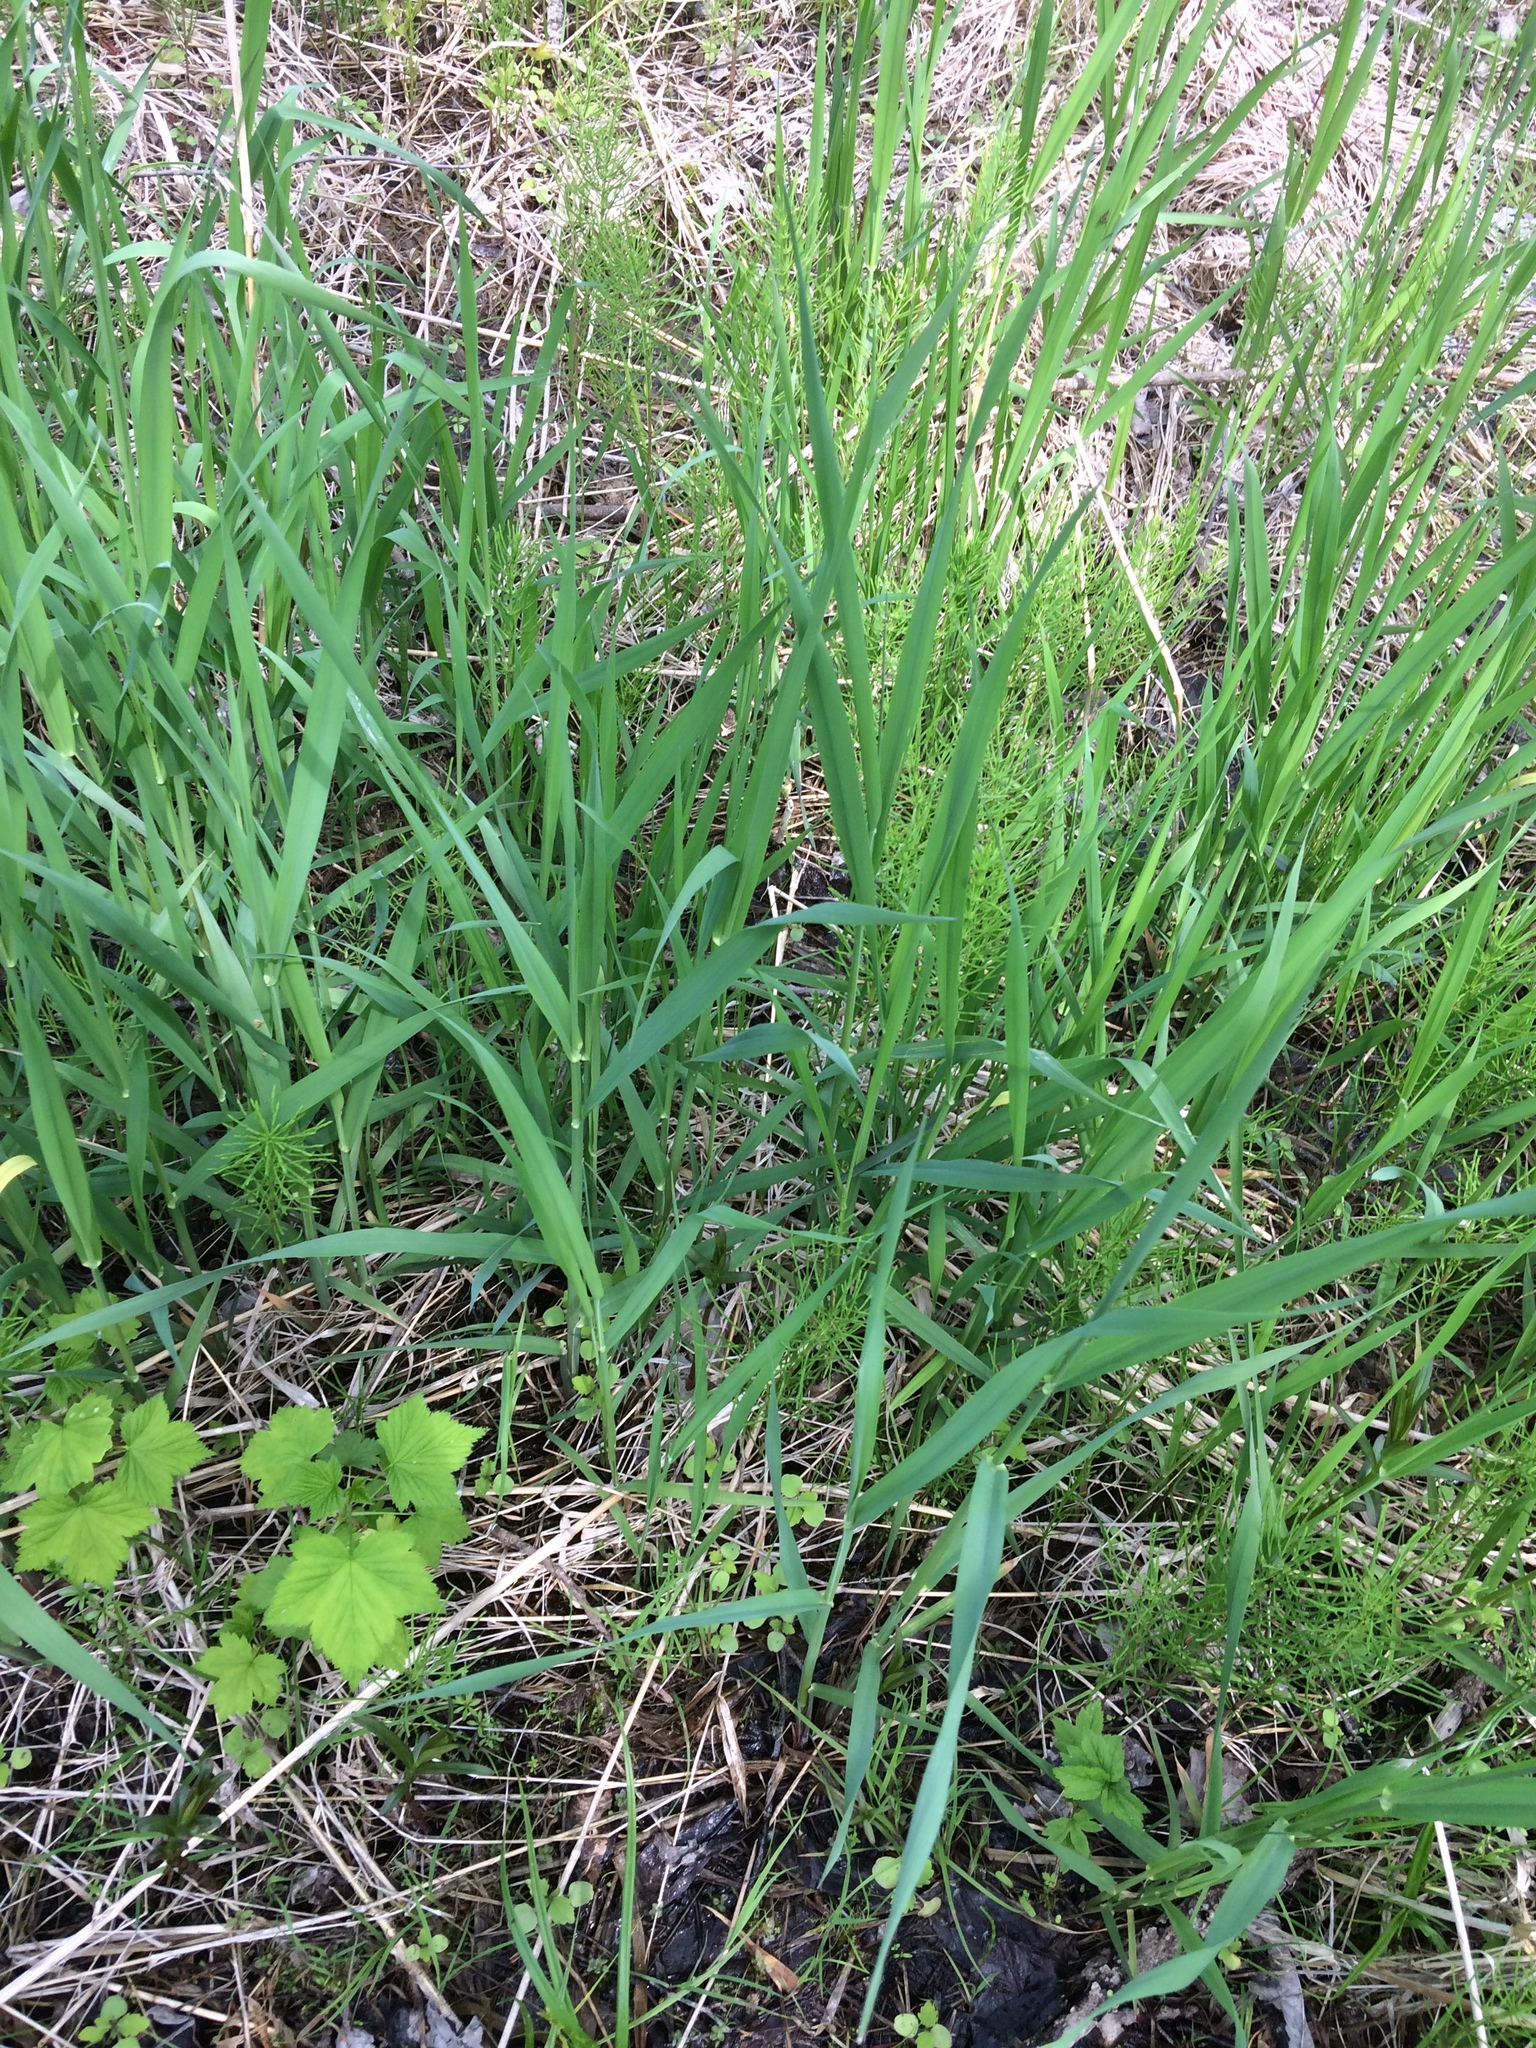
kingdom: Plantae
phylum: Tracheophyta
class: Liliopsida
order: Poales
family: Poaceae
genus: Phalaris
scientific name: Phalaris arundinacea
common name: Reed canary-grass
